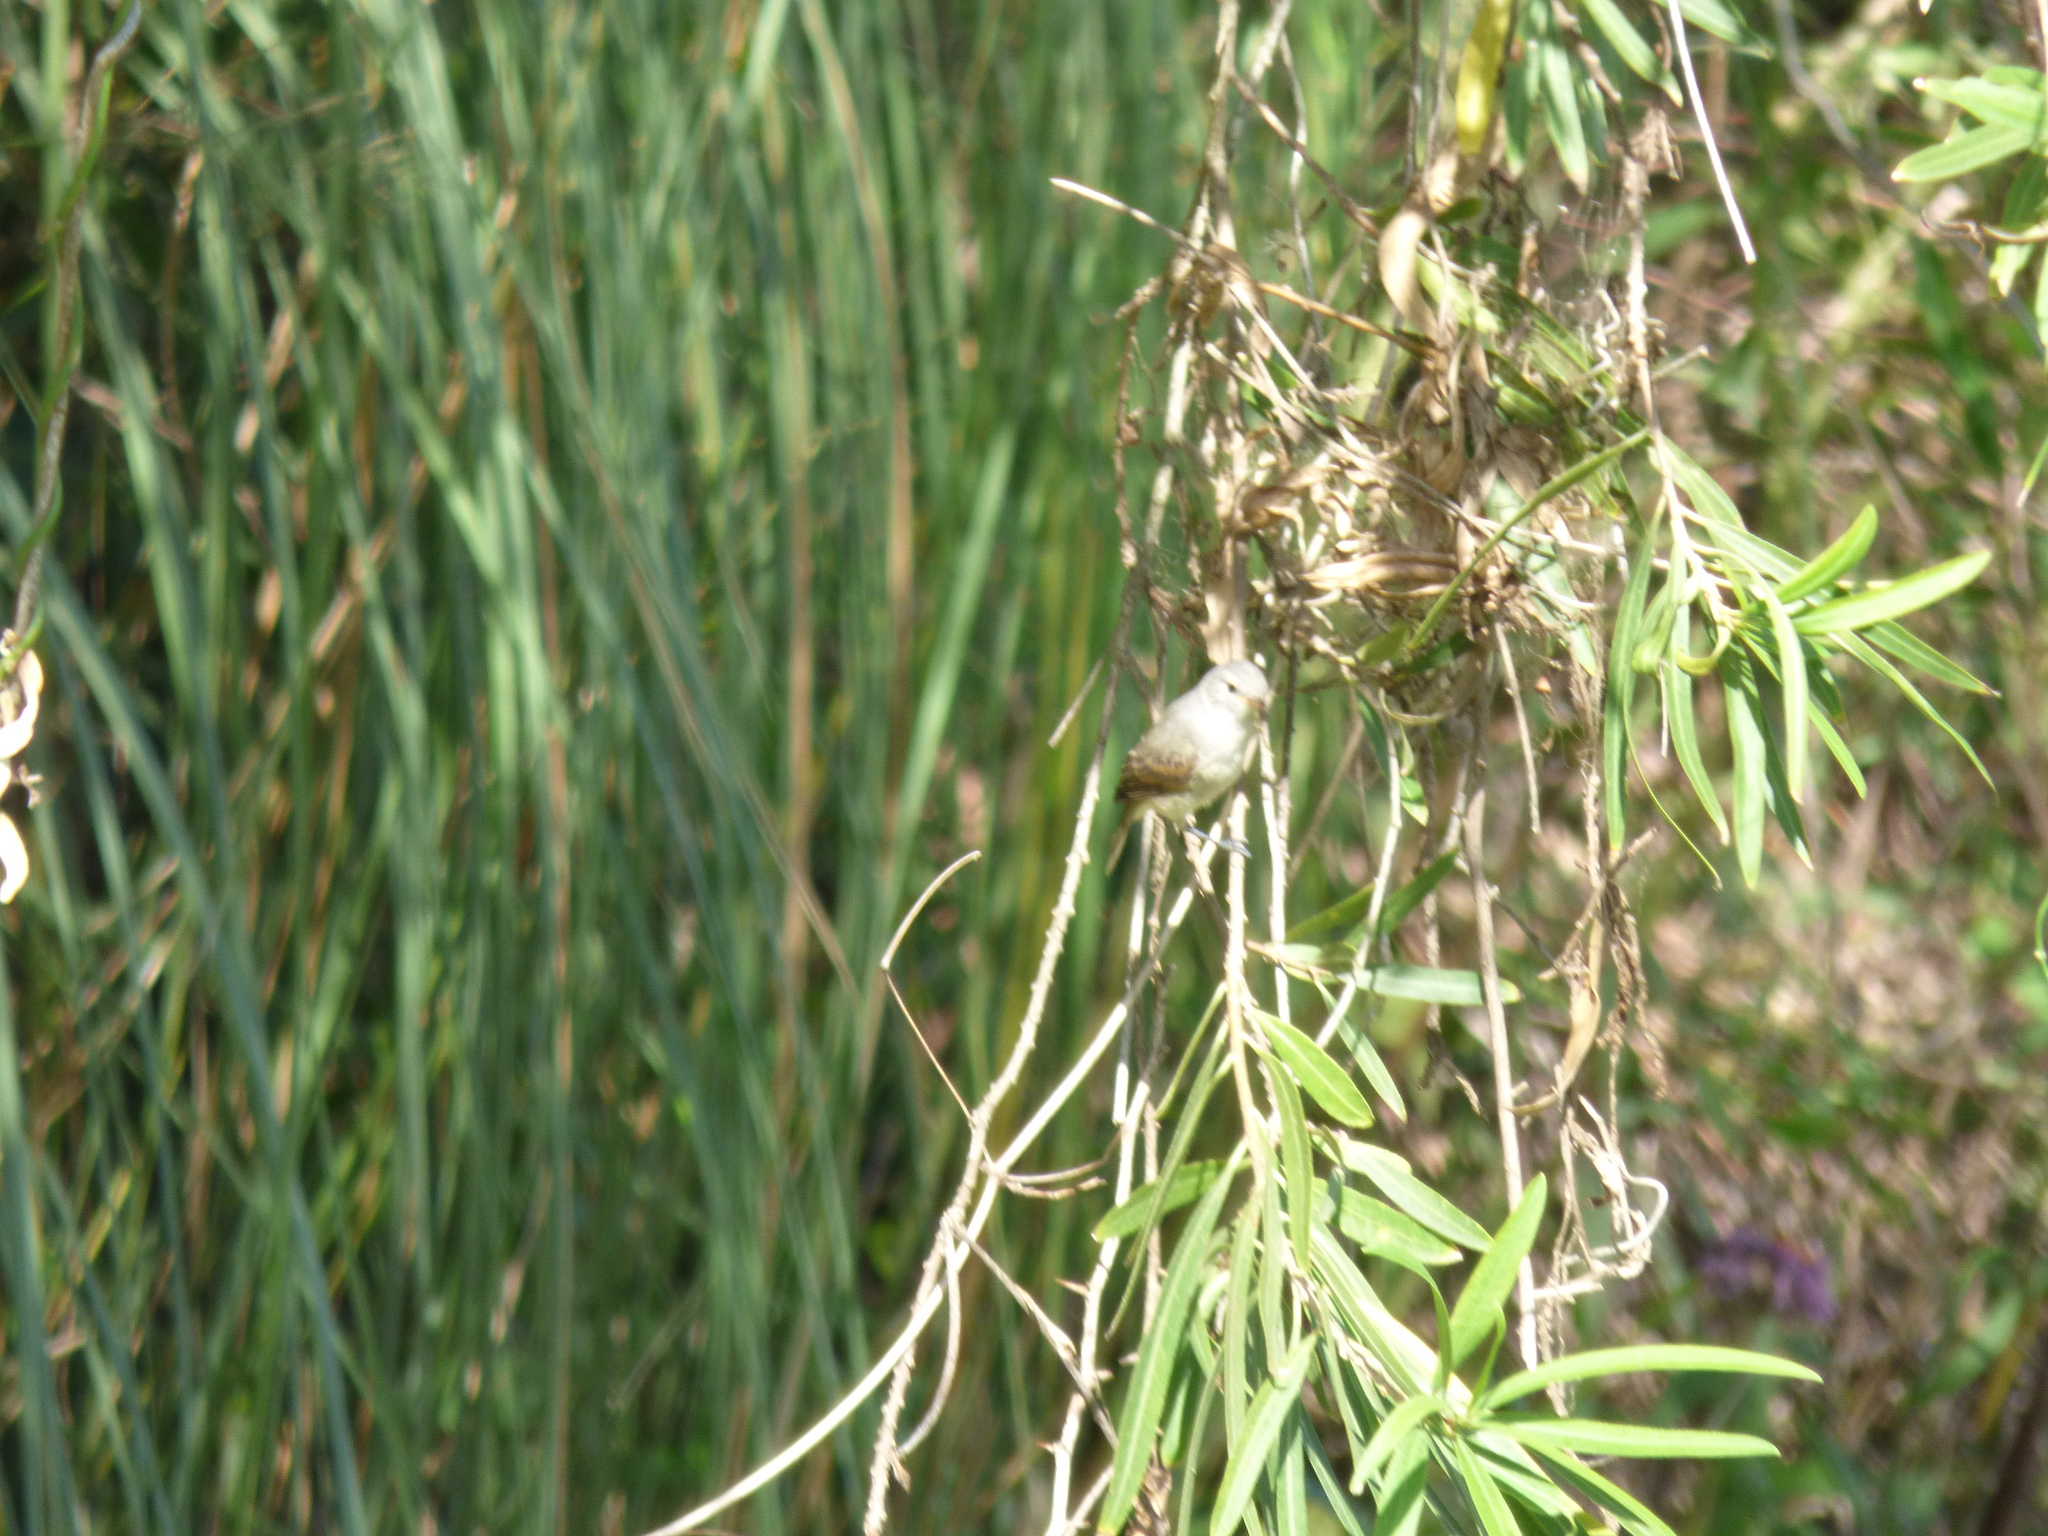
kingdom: Animalia
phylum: Chordata
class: Aves
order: Passeriformes
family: Tyrannidae
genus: Camptostoma
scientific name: Camptostoma obsoletum
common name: Southern beardless-tyrannulet
